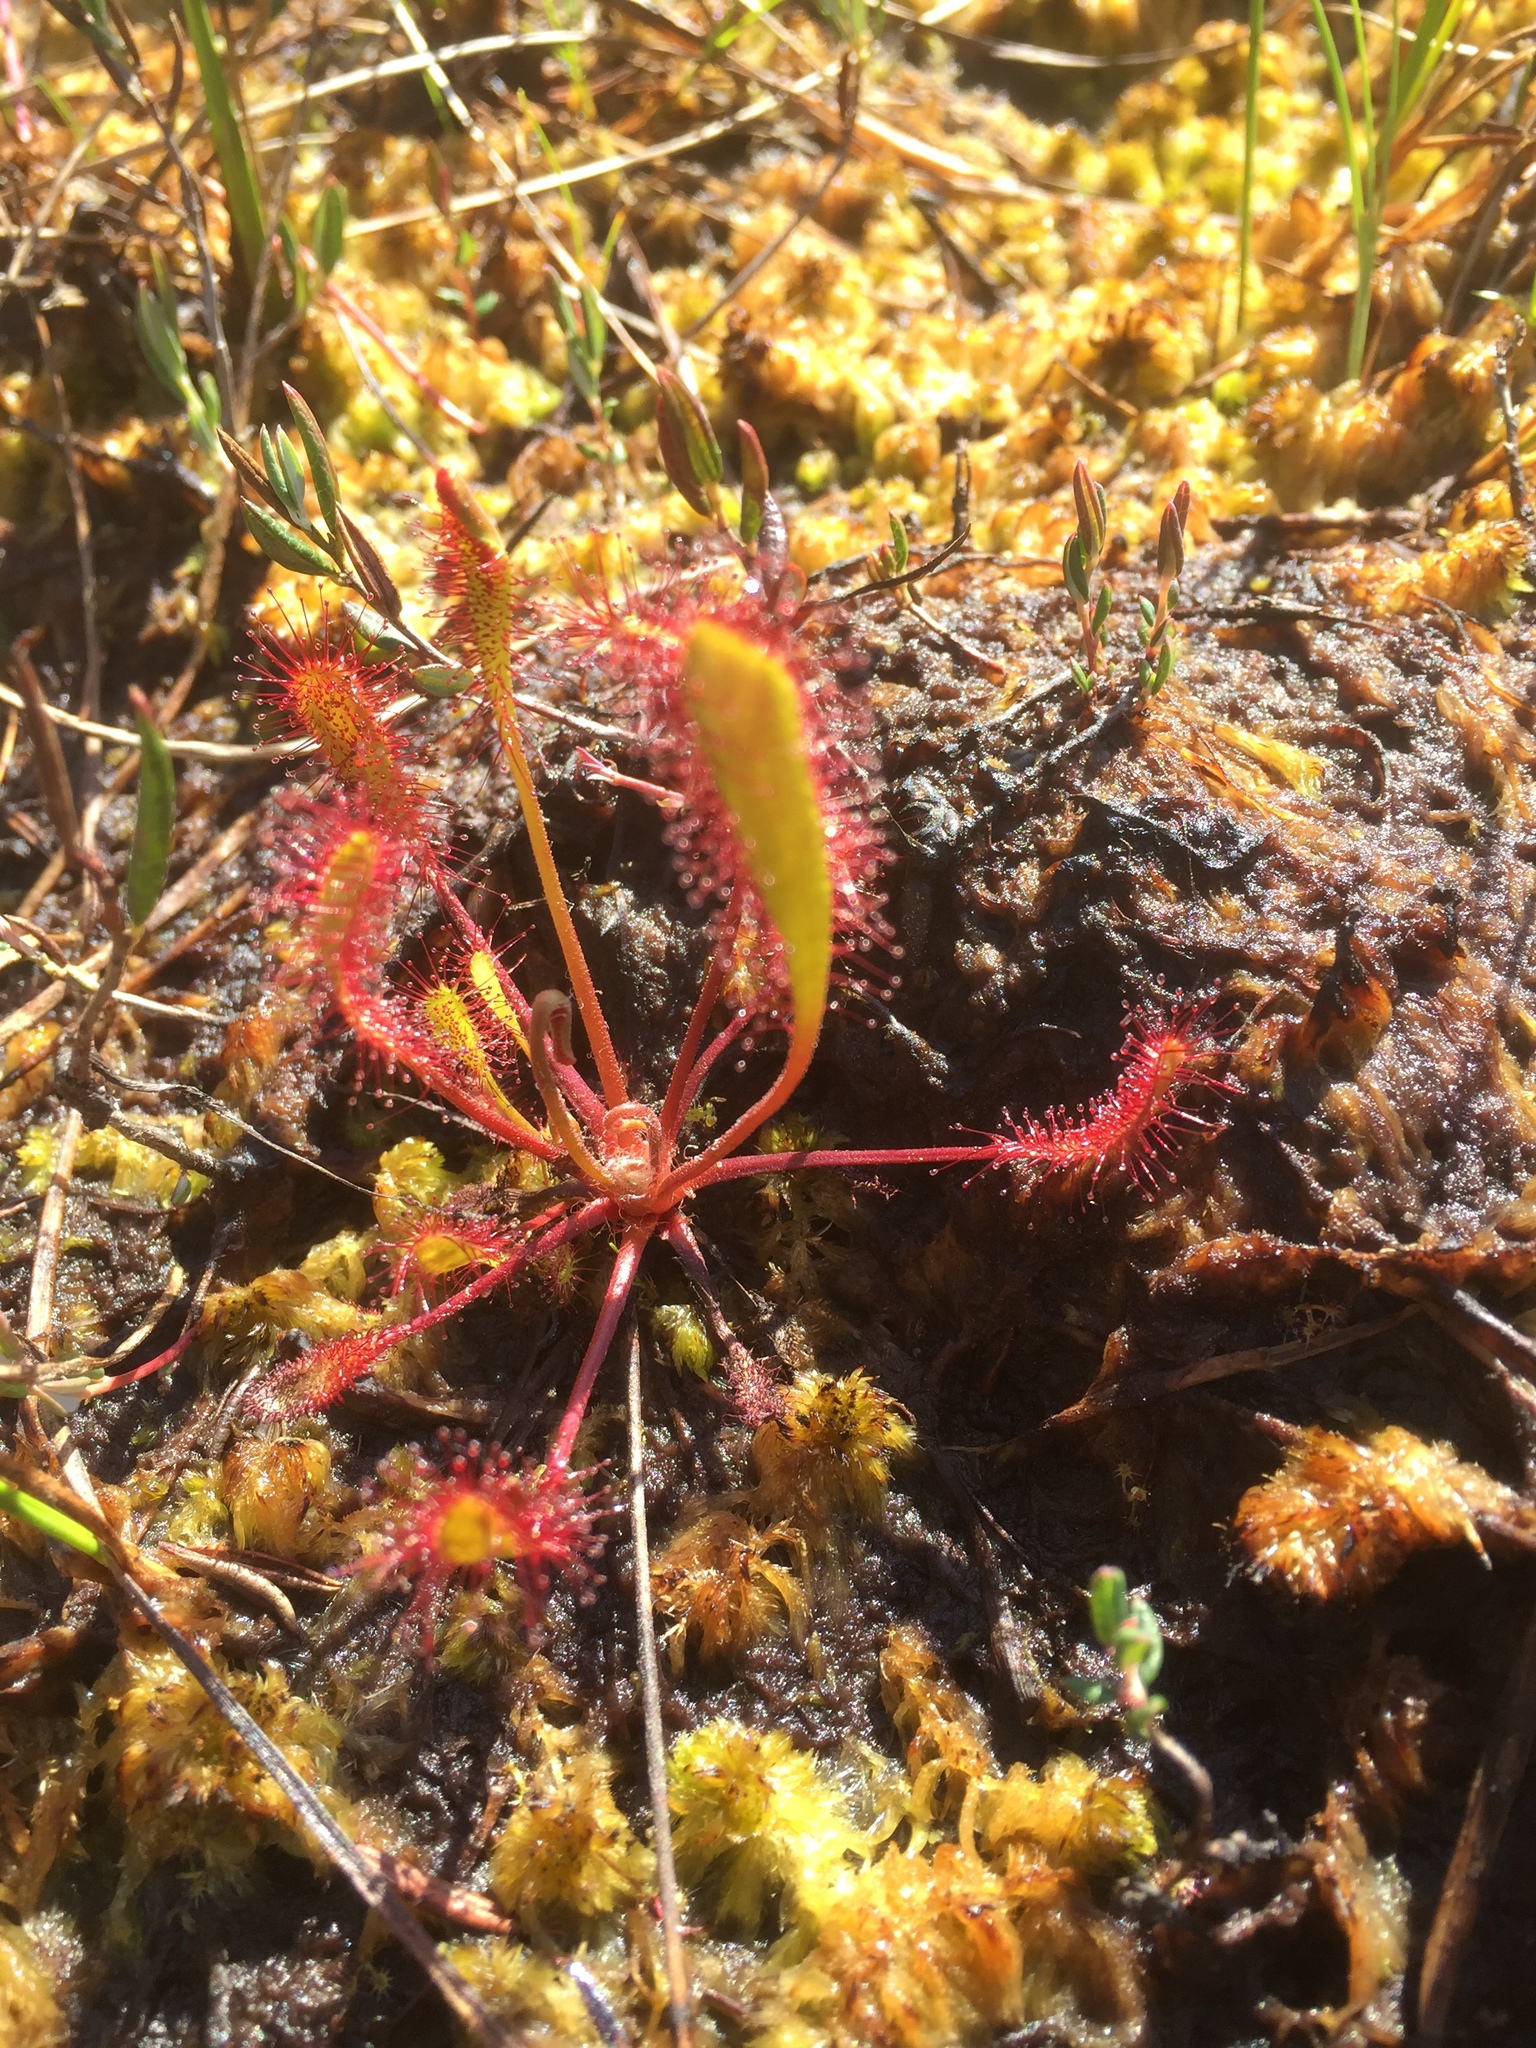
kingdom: Plantae
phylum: Tracheophyta
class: Magnoliopsida
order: Caryophyllales
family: Droseraceae
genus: Drosera
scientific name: Drosera anglica
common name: Great sundew
